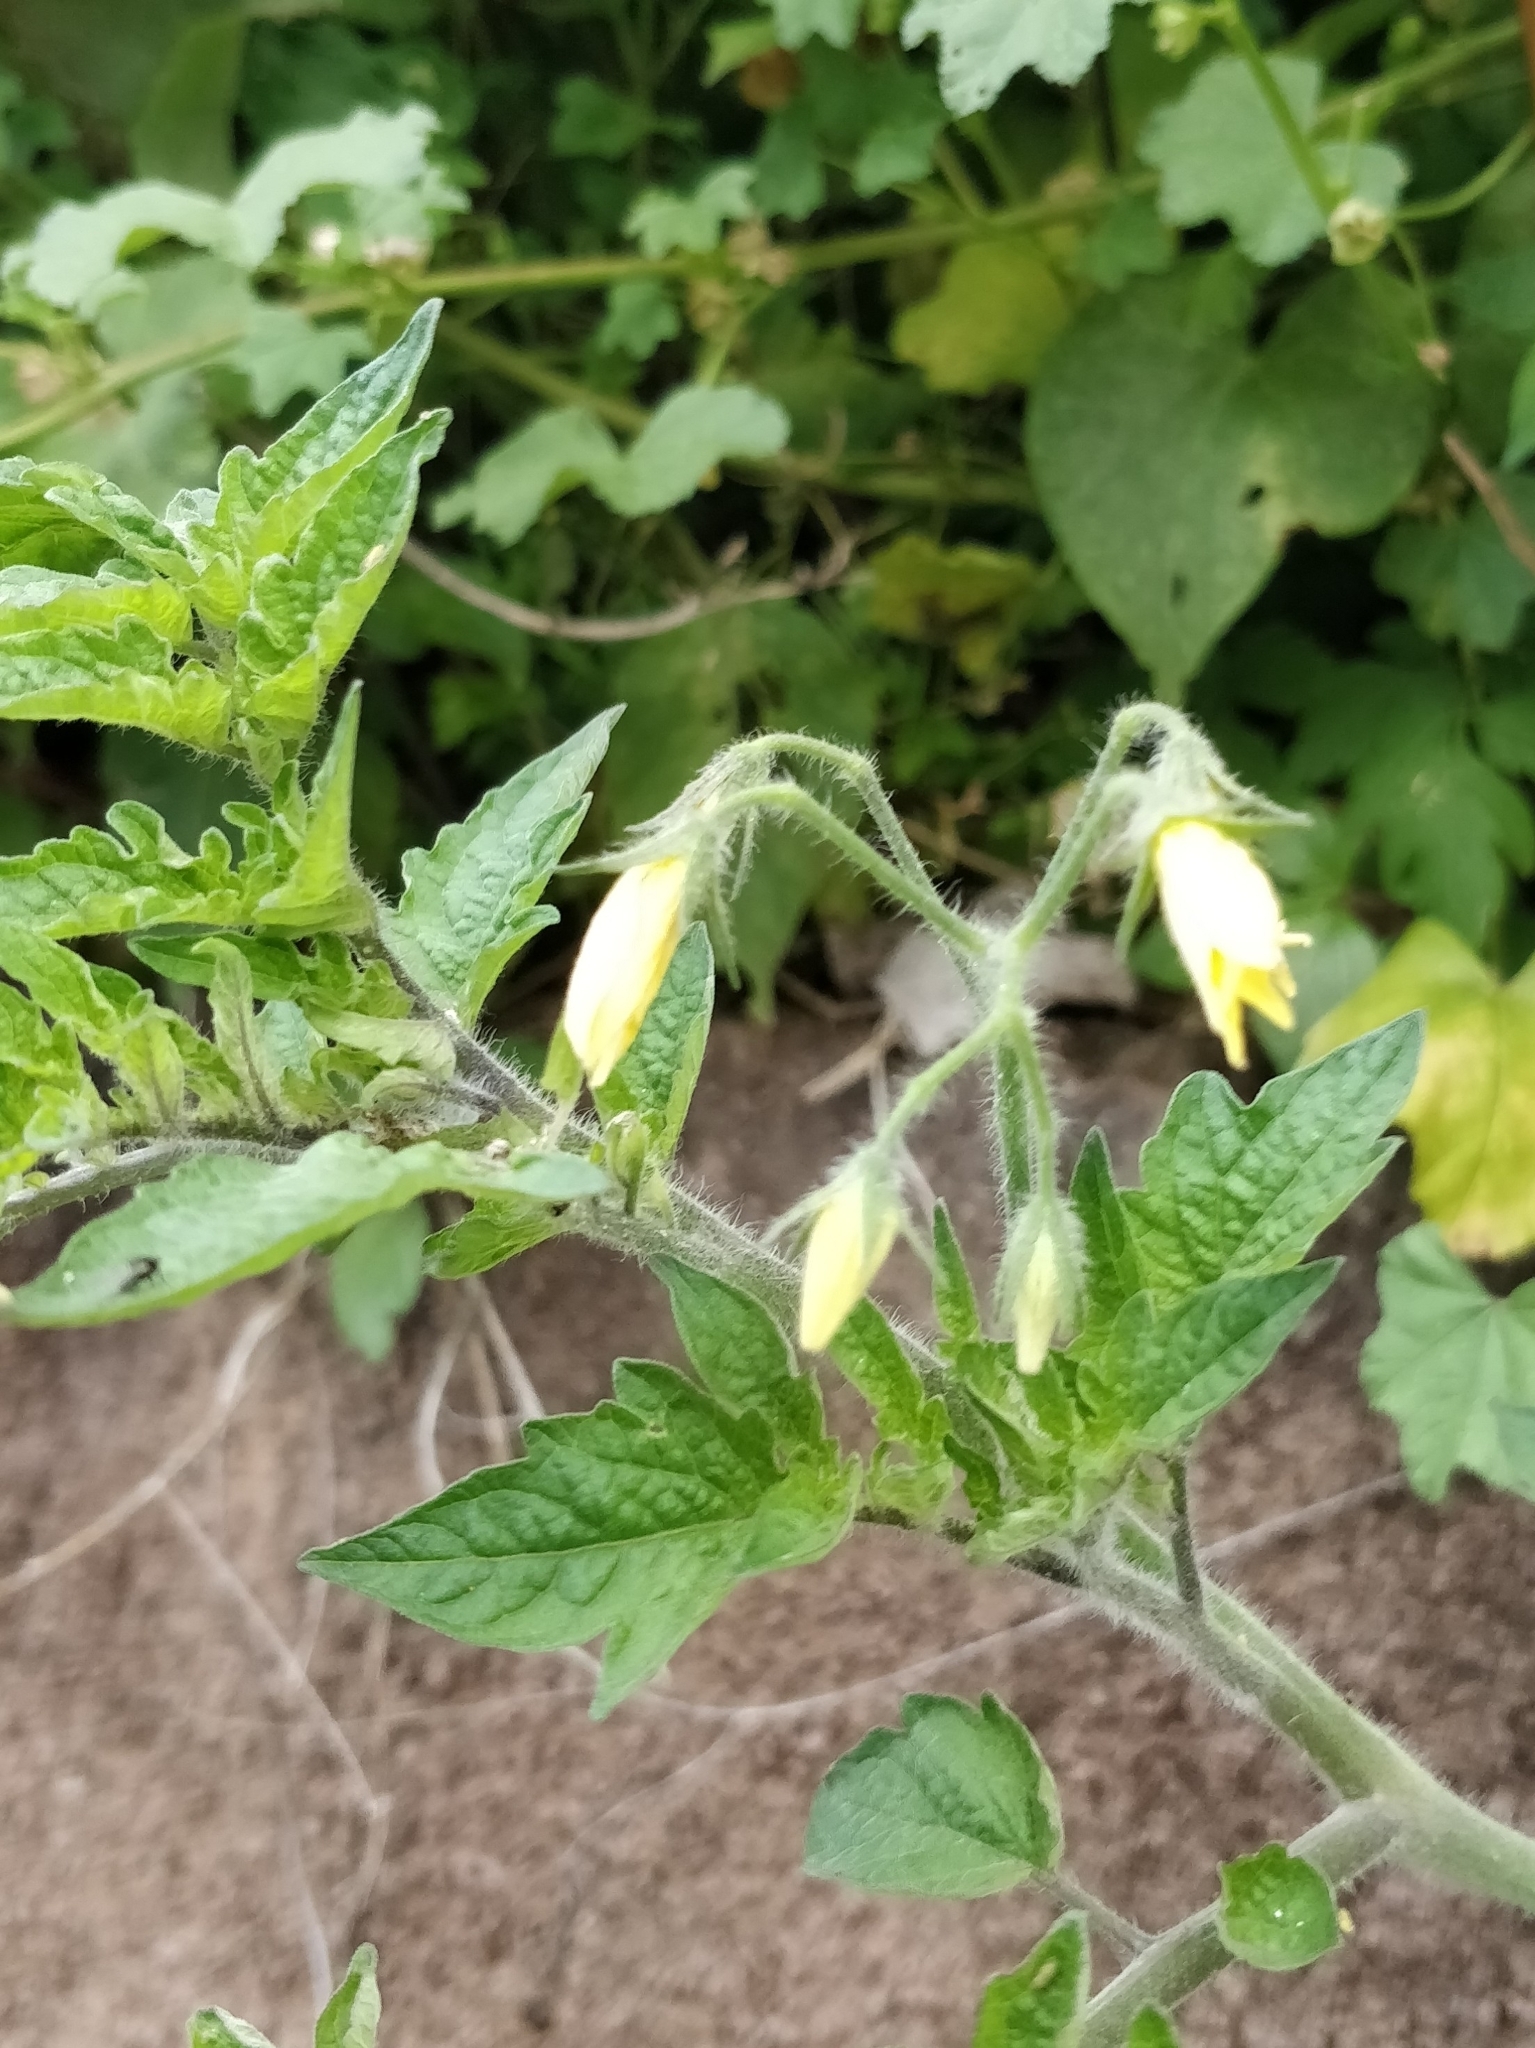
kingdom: Plantae
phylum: Tracheophyta
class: Magnoliopsida
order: Solanales
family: Solanaceae
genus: Solanum
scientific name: Solanum lycopersicum
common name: Garden tomato
